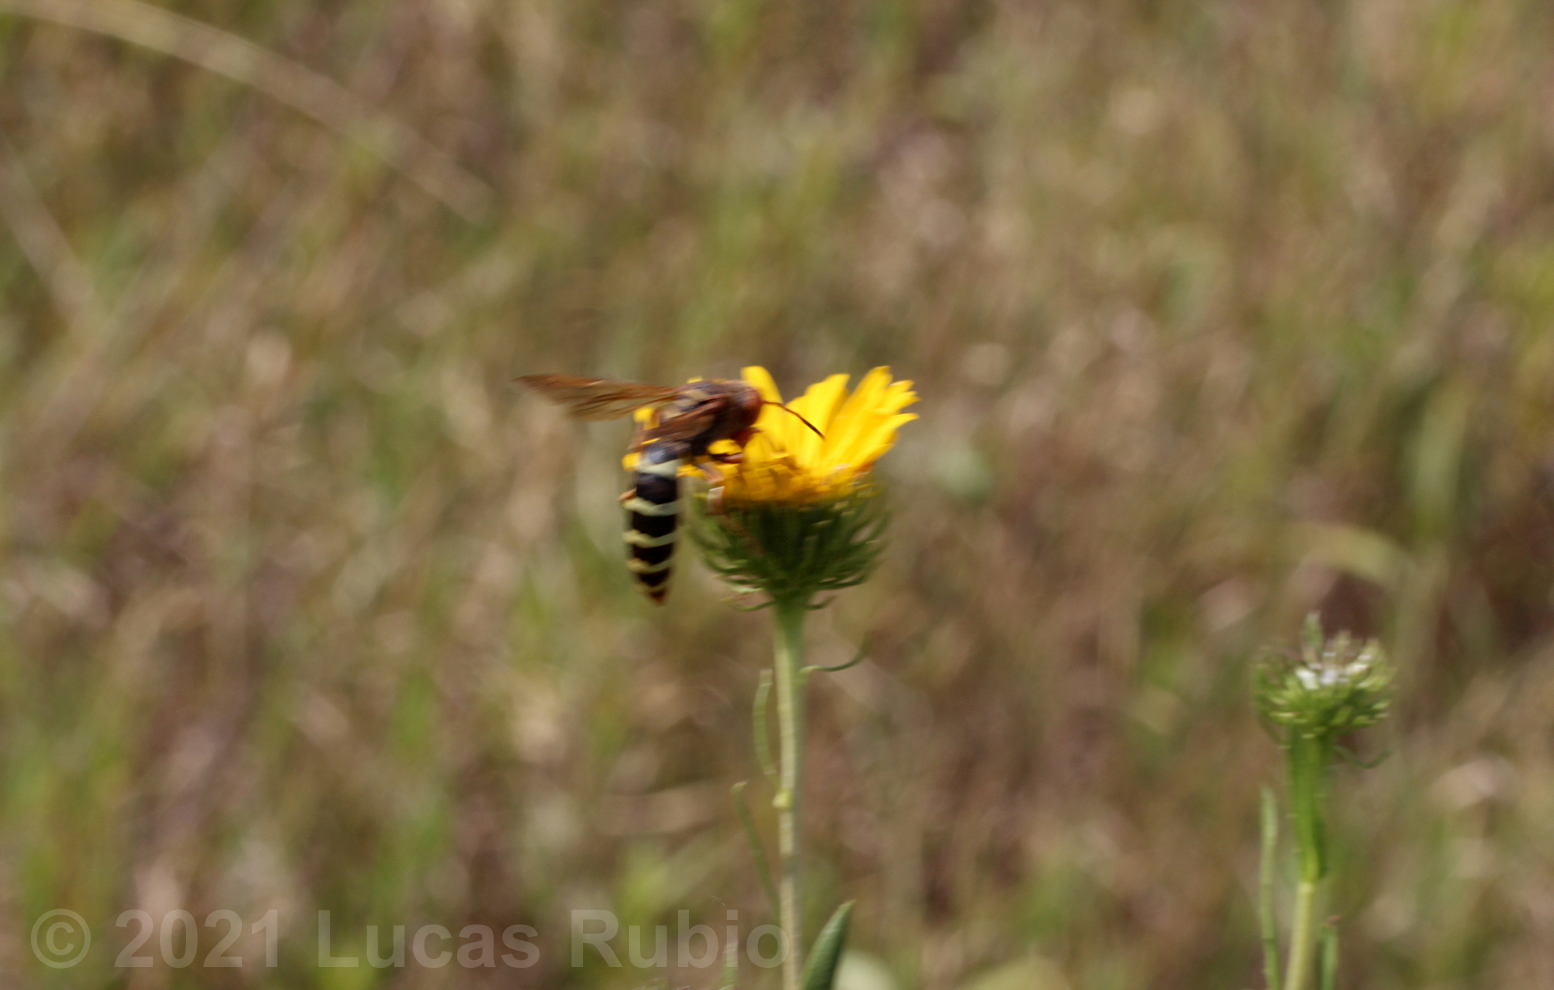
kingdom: Animalia
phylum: Arthropoda
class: Insecta
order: Hymenoptera
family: Crabronidae
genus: Rubrica
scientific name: Rubrica gravida
